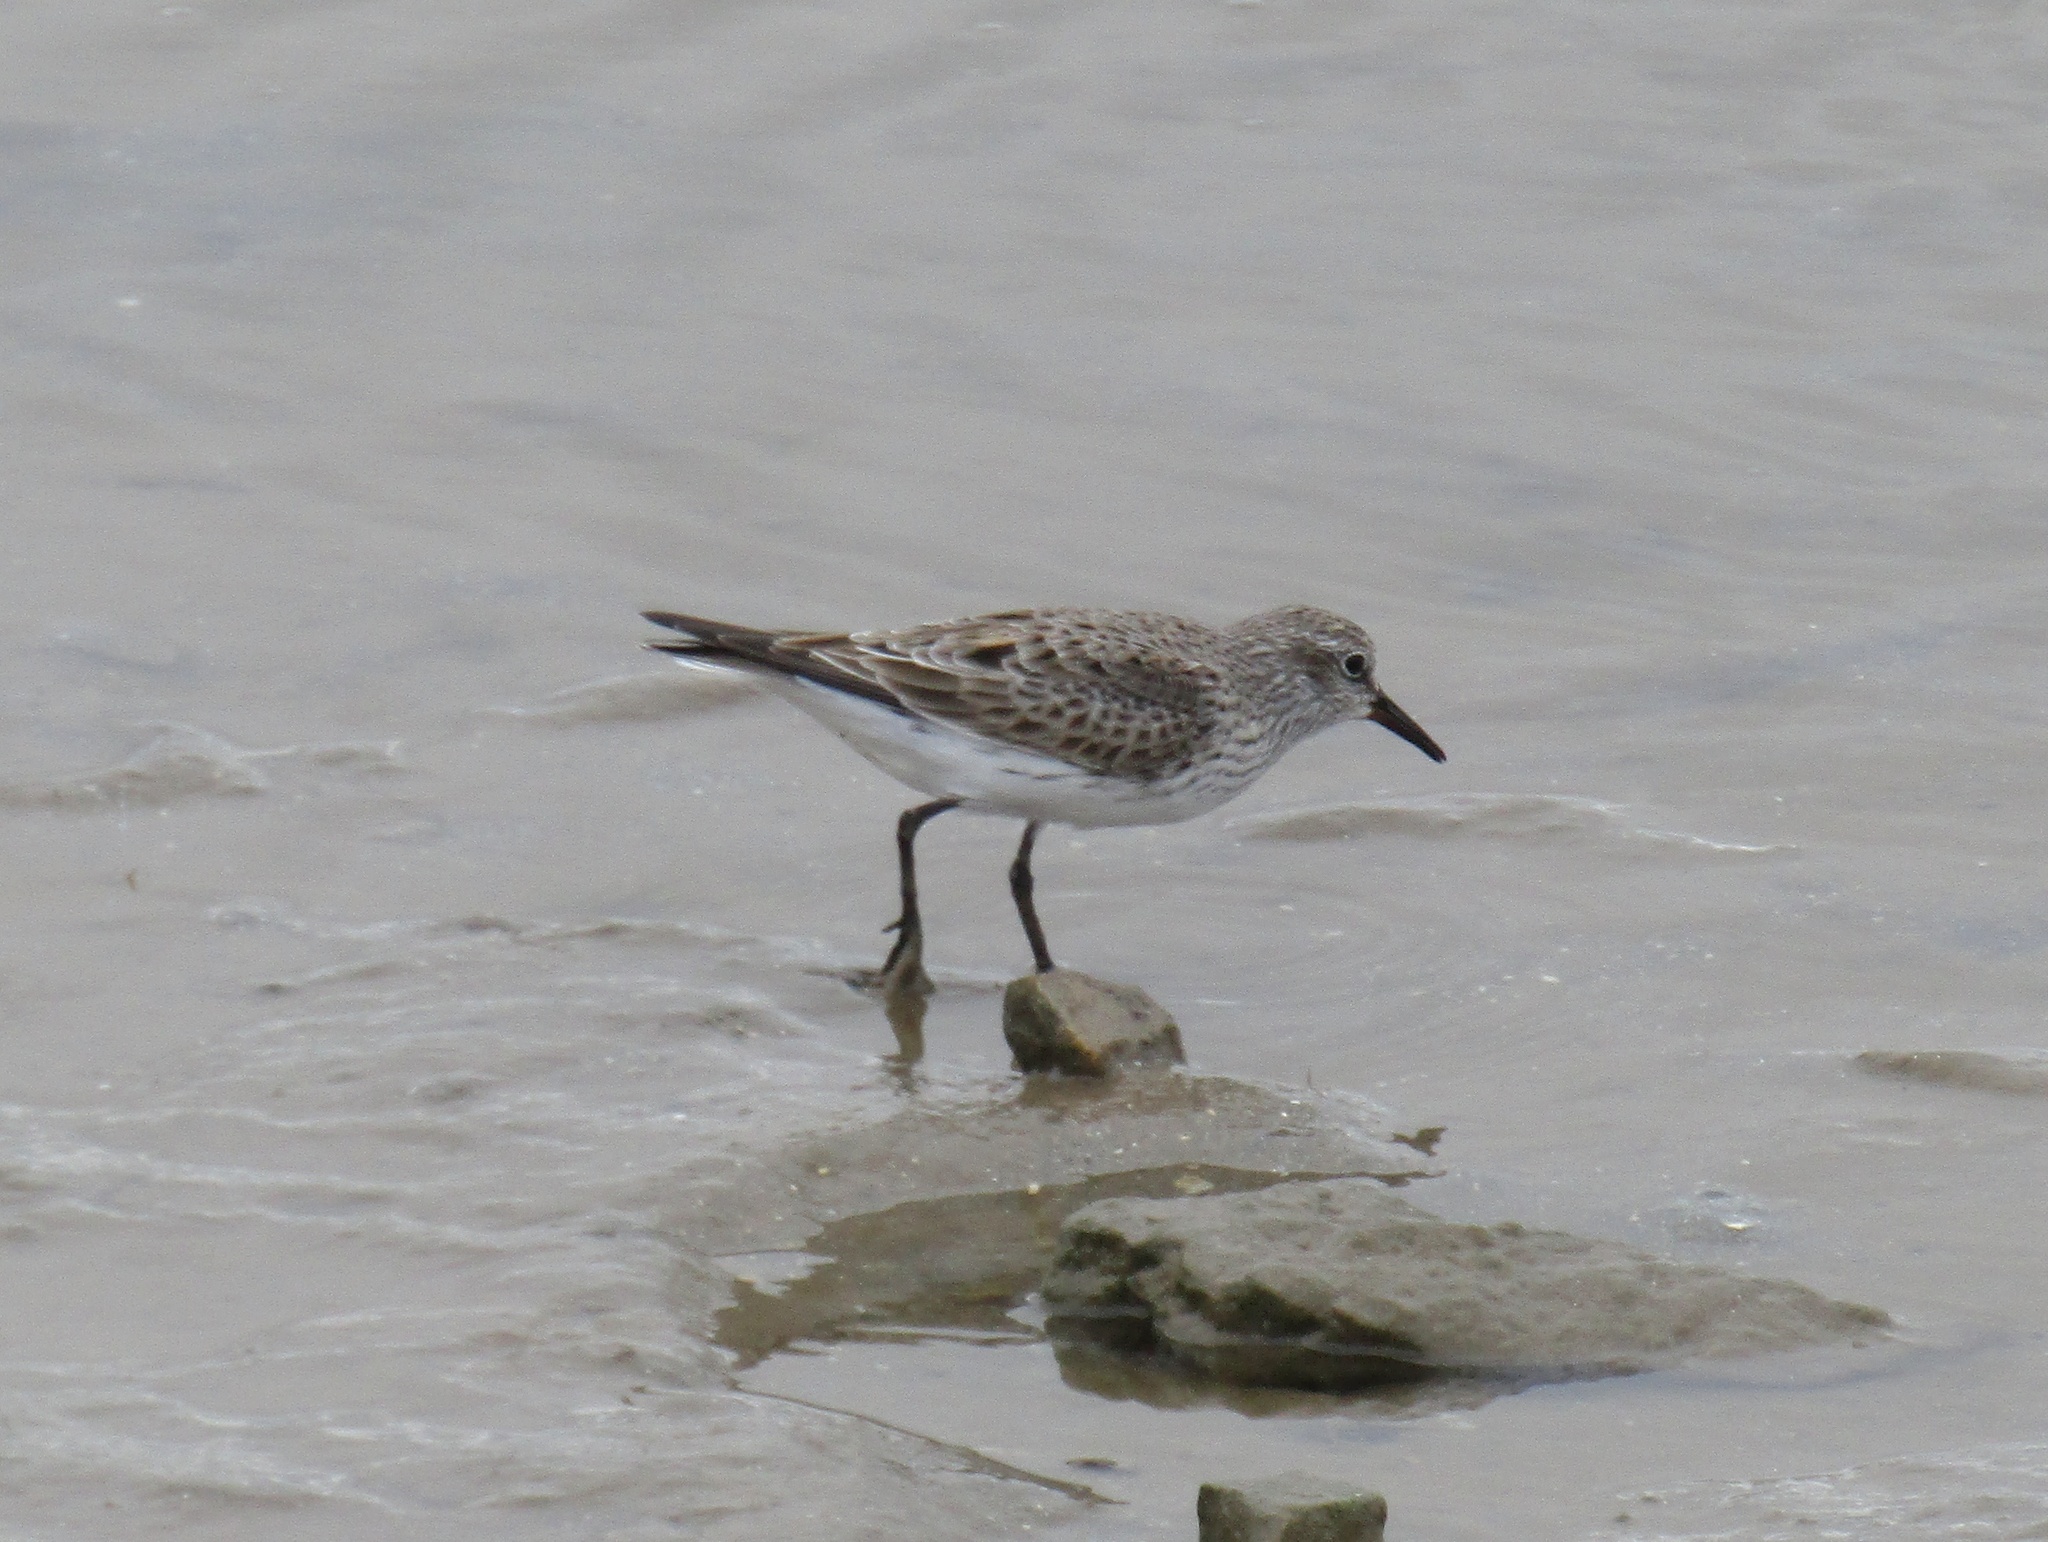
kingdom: Animalia
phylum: Chordata
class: Aves
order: Charadriiformes
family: Scolopacidae
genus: Calidris
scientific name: Calidris fuscicollis
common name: White-rumped sandpiper
